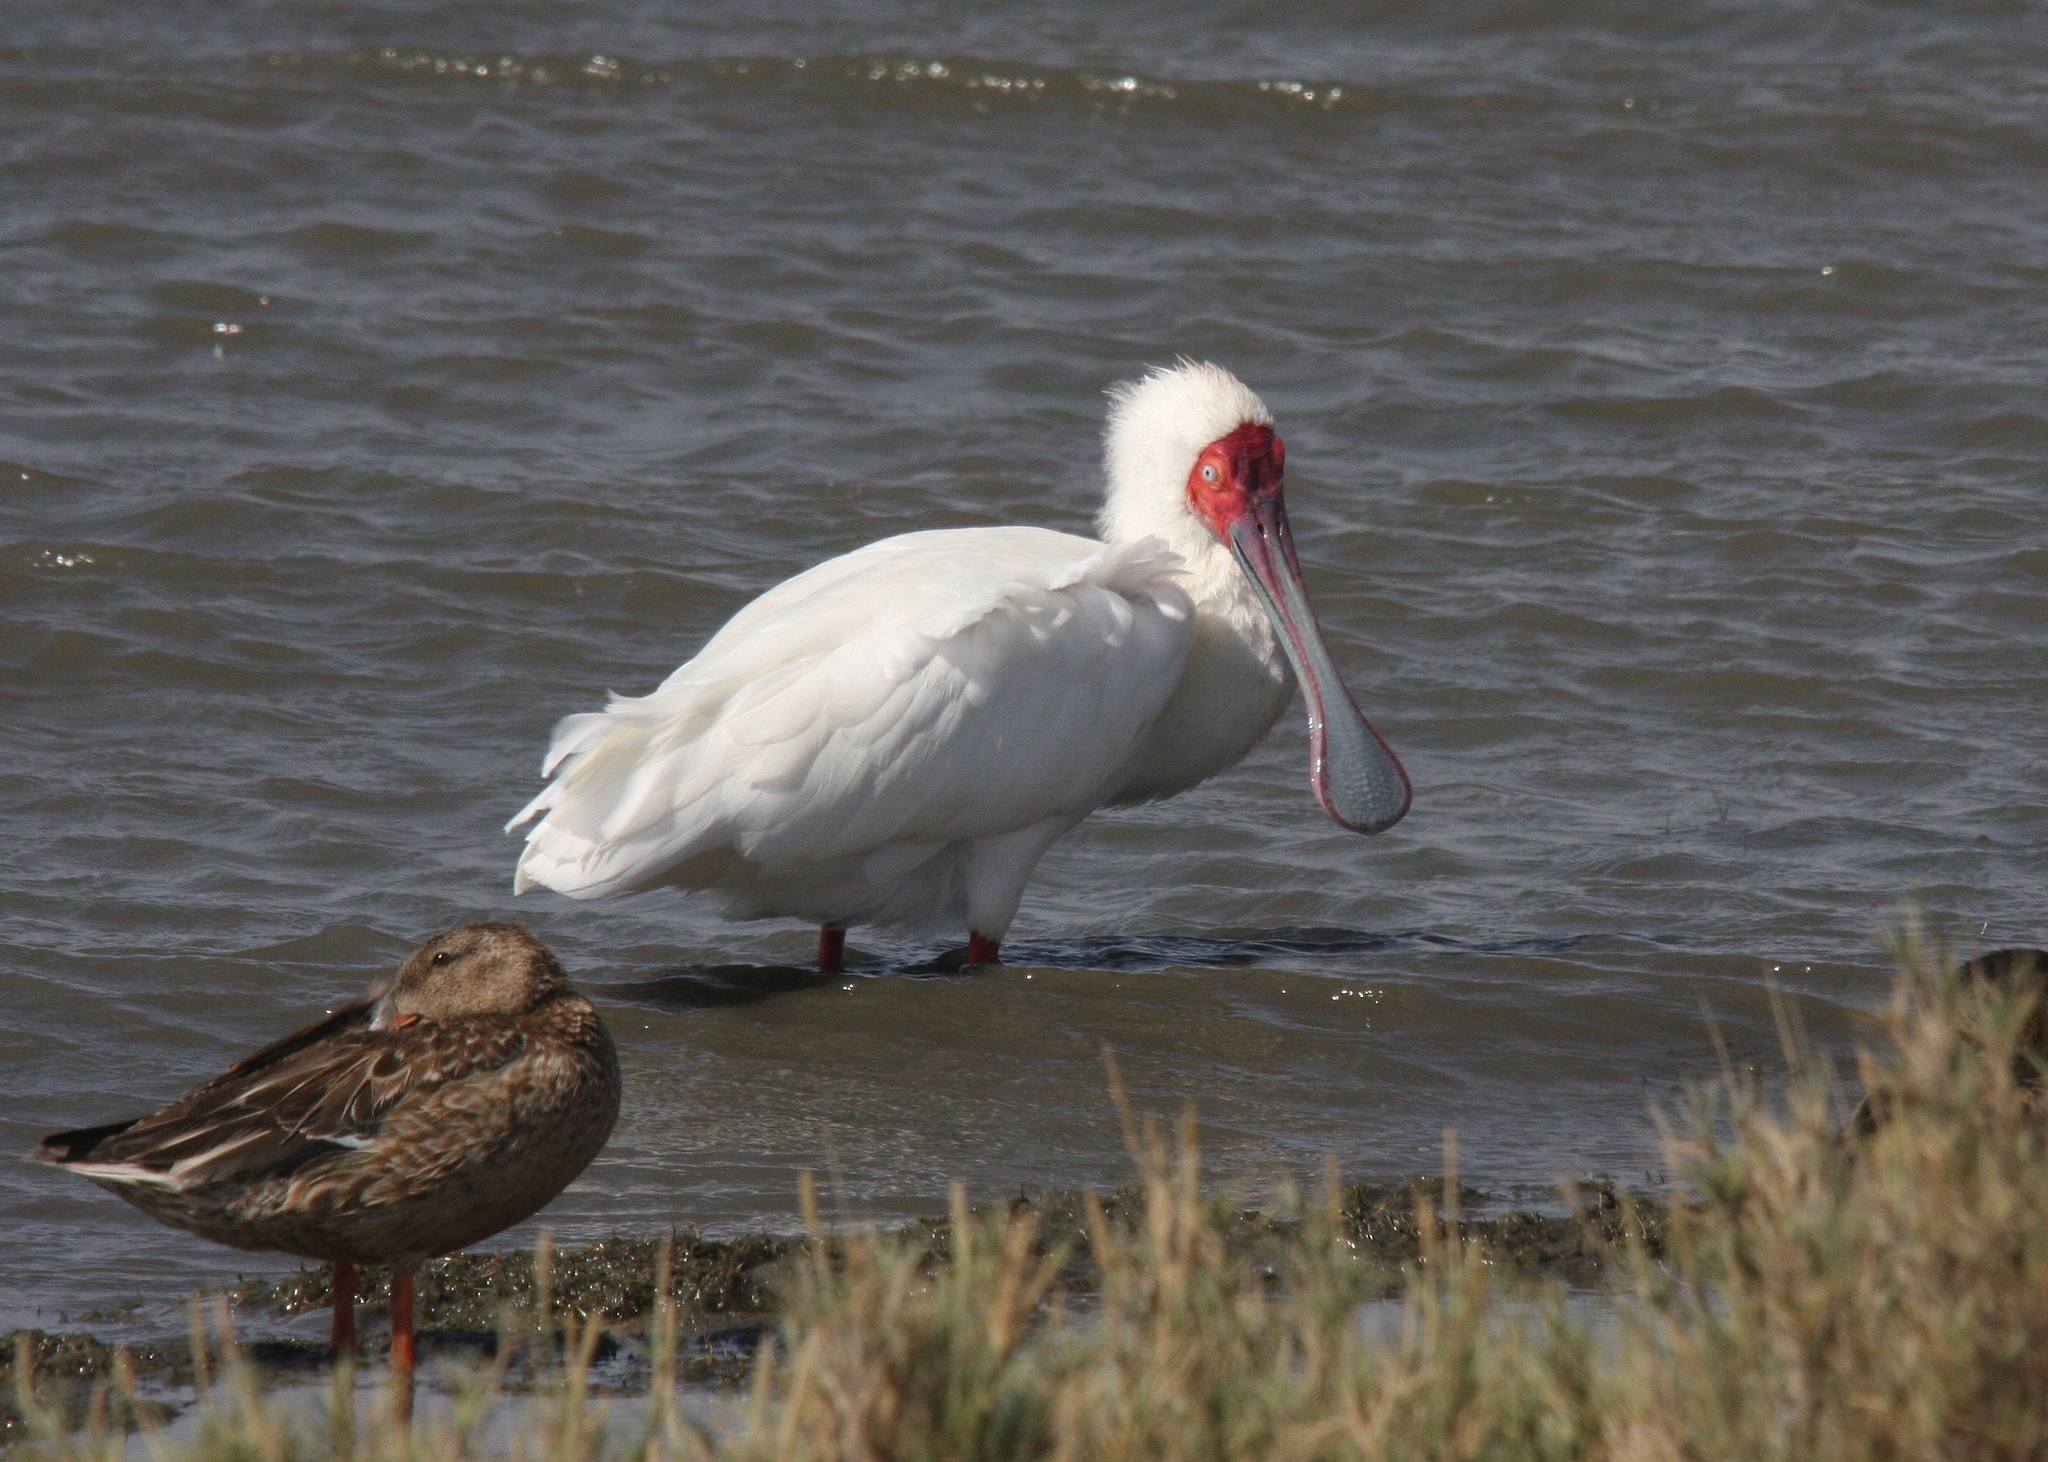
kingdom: Animalia
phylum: Chordata
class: Aves
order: Pelecaniformes
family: Threskiornithidae
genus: Platalea
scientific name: Platalea alba
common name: African spoonbill
